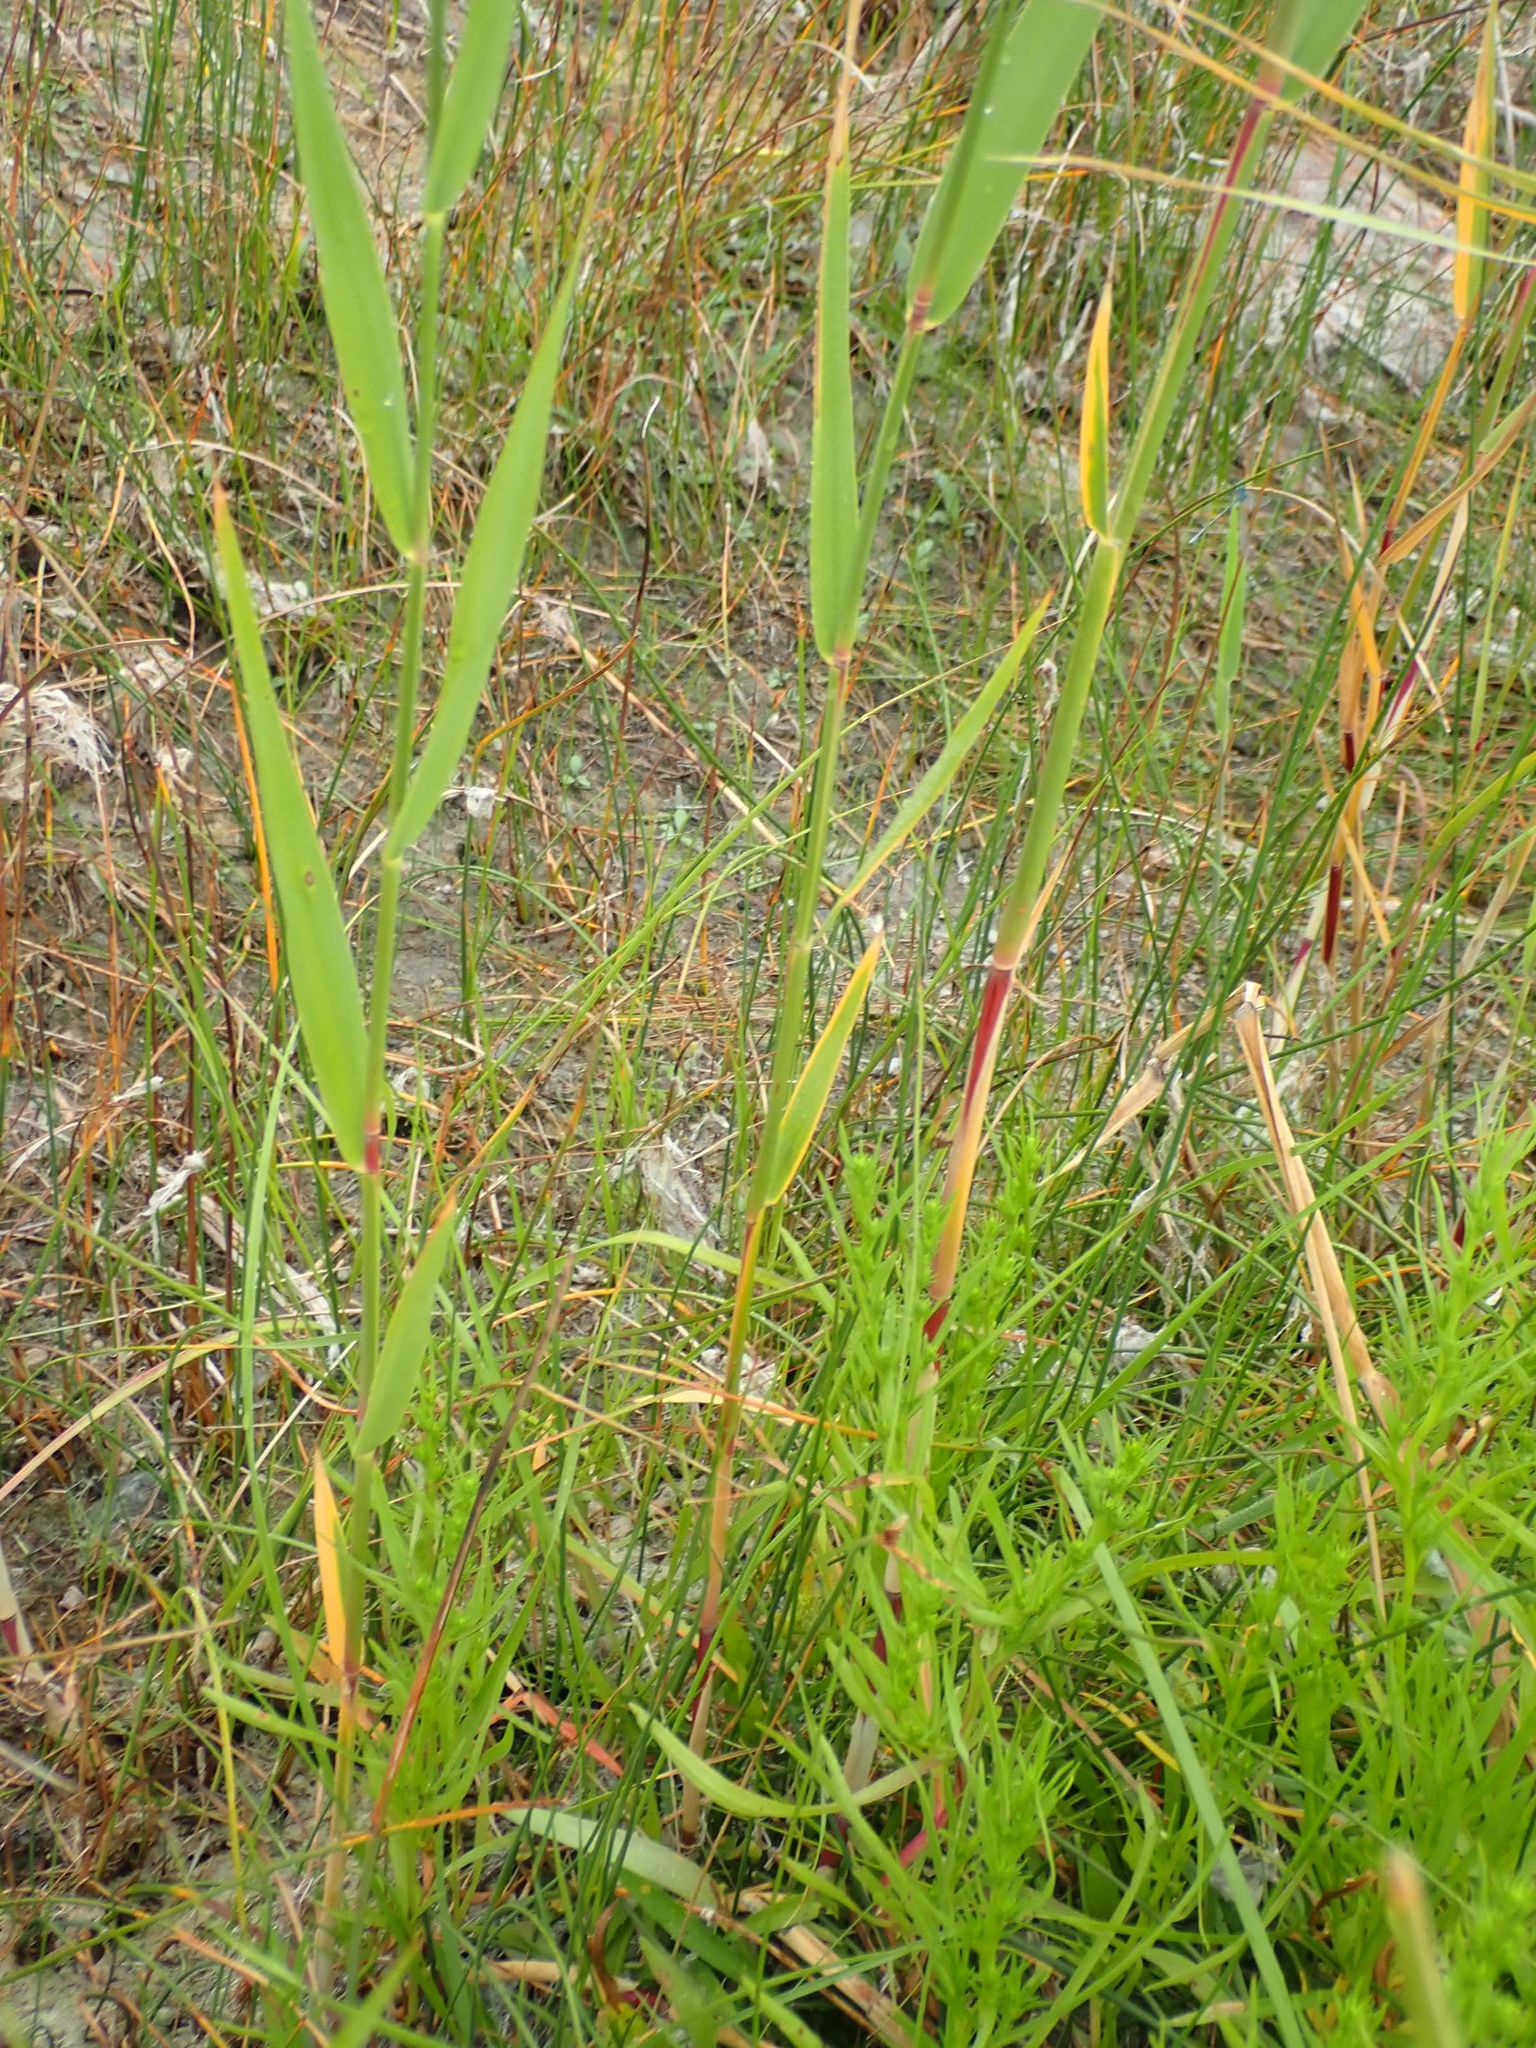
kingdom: Plantae
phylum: Tracheophyta
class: Liliopsida
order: Poales
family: Poaceae
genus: Phragmites
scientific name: Phragmites australis
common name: Common reed
